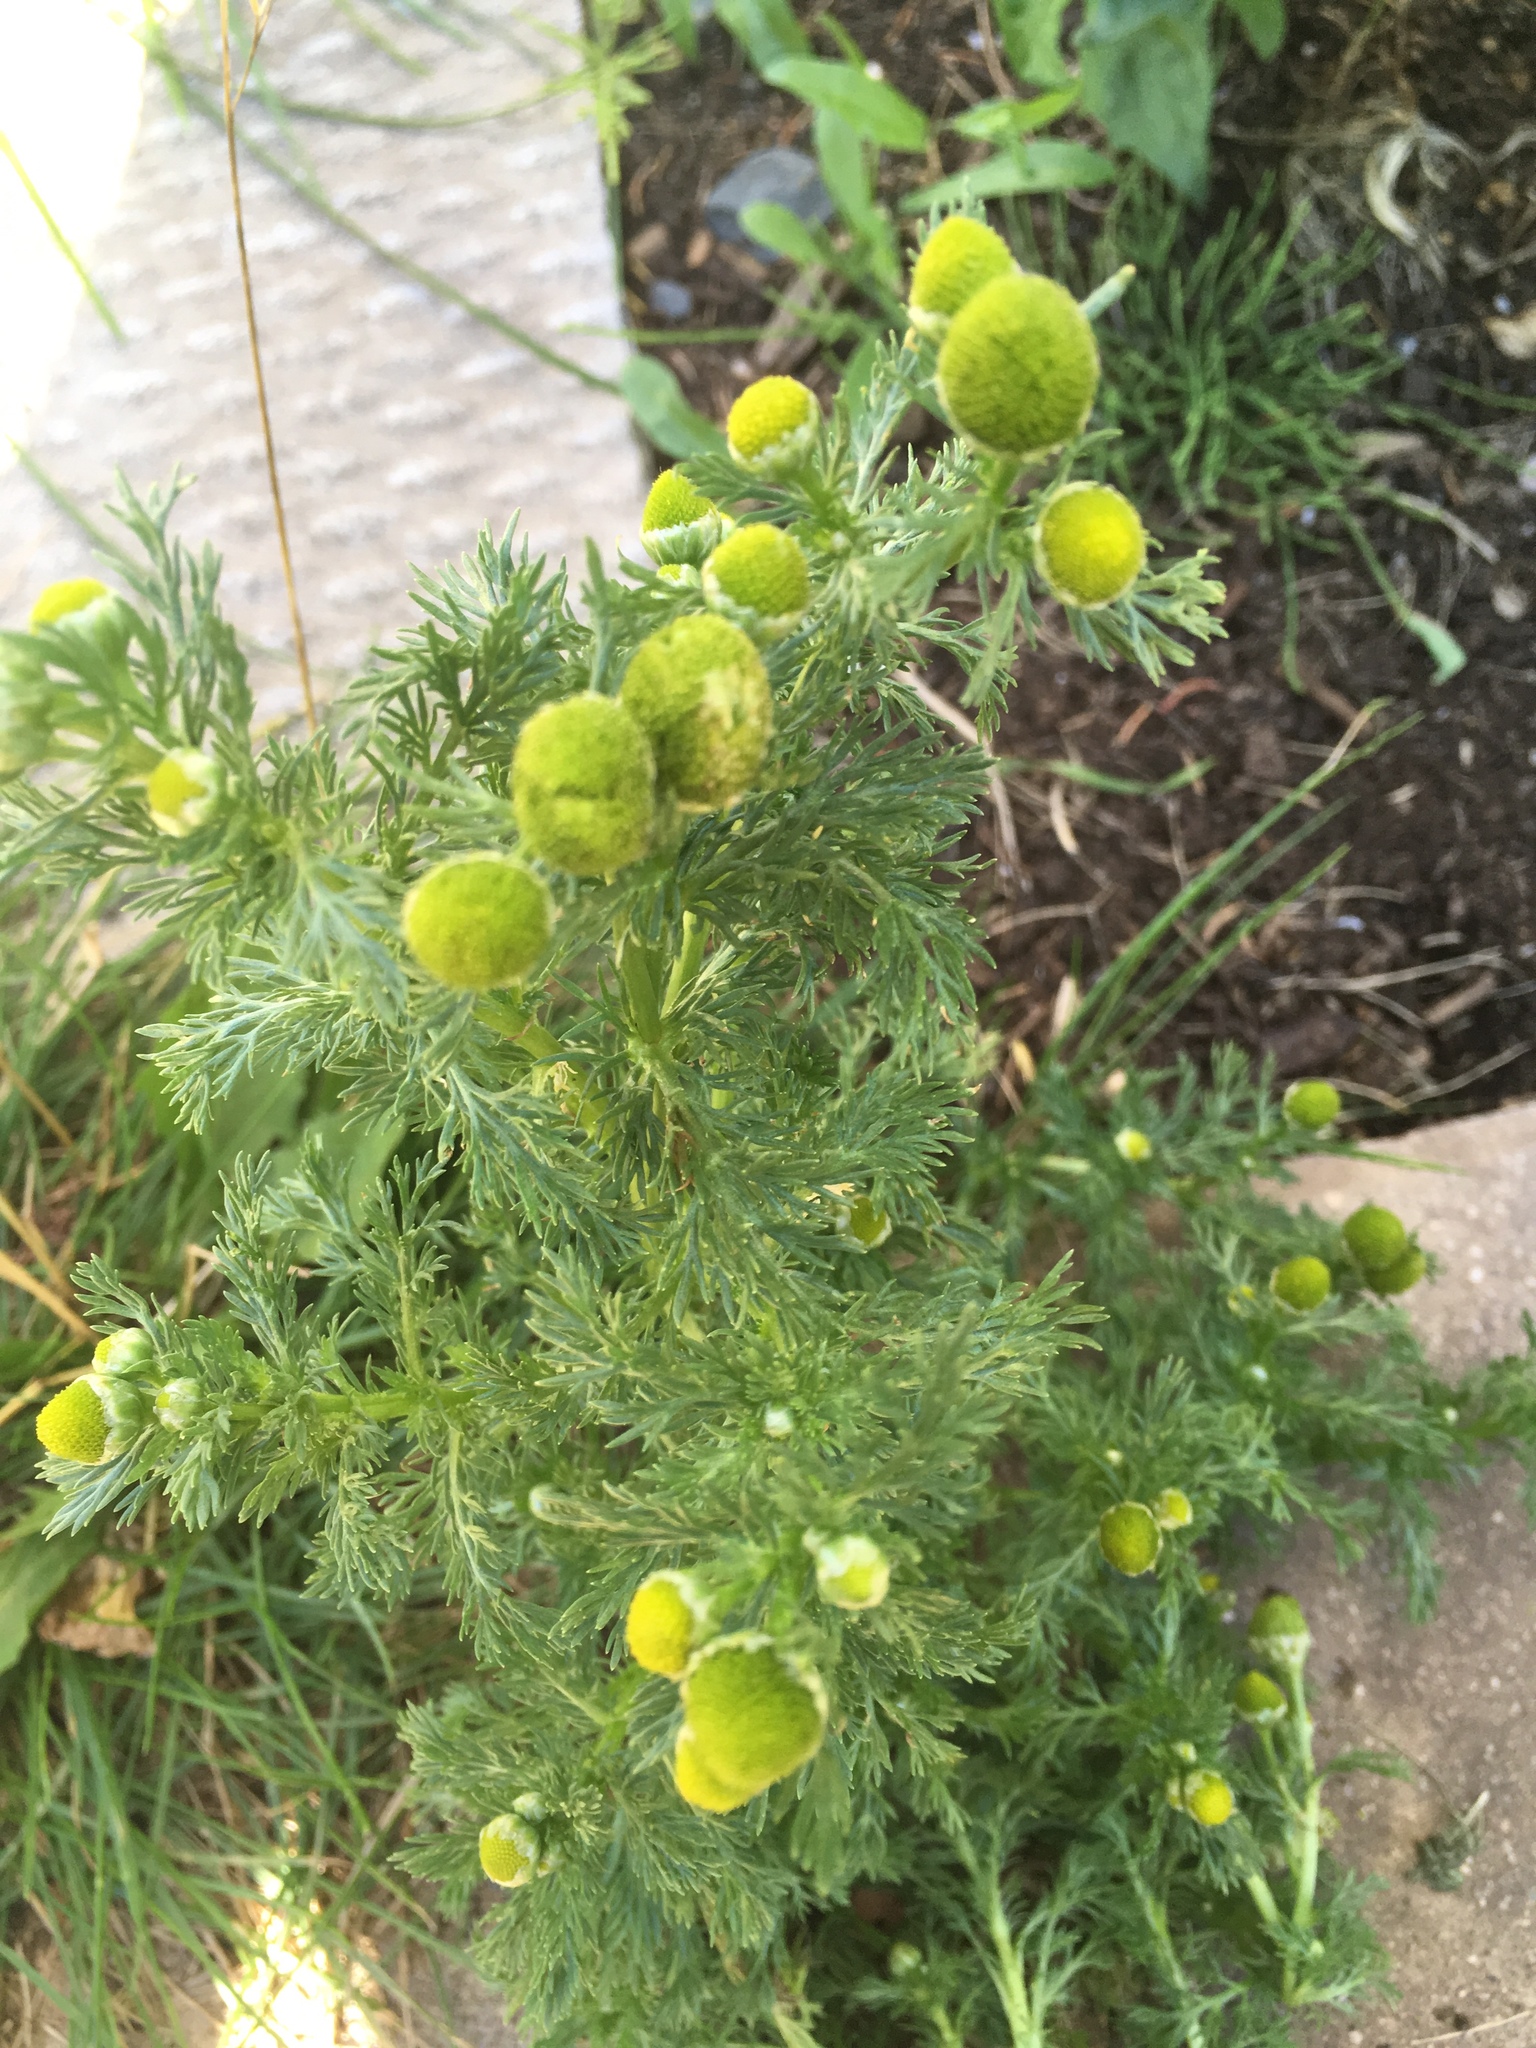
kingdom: Plantae
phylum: Tracheophyta
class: Magnoliopsida
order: Asterales
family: Asteraceae
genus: Matricaria
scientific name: Matricaria discoidea
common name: Disc mayweed
